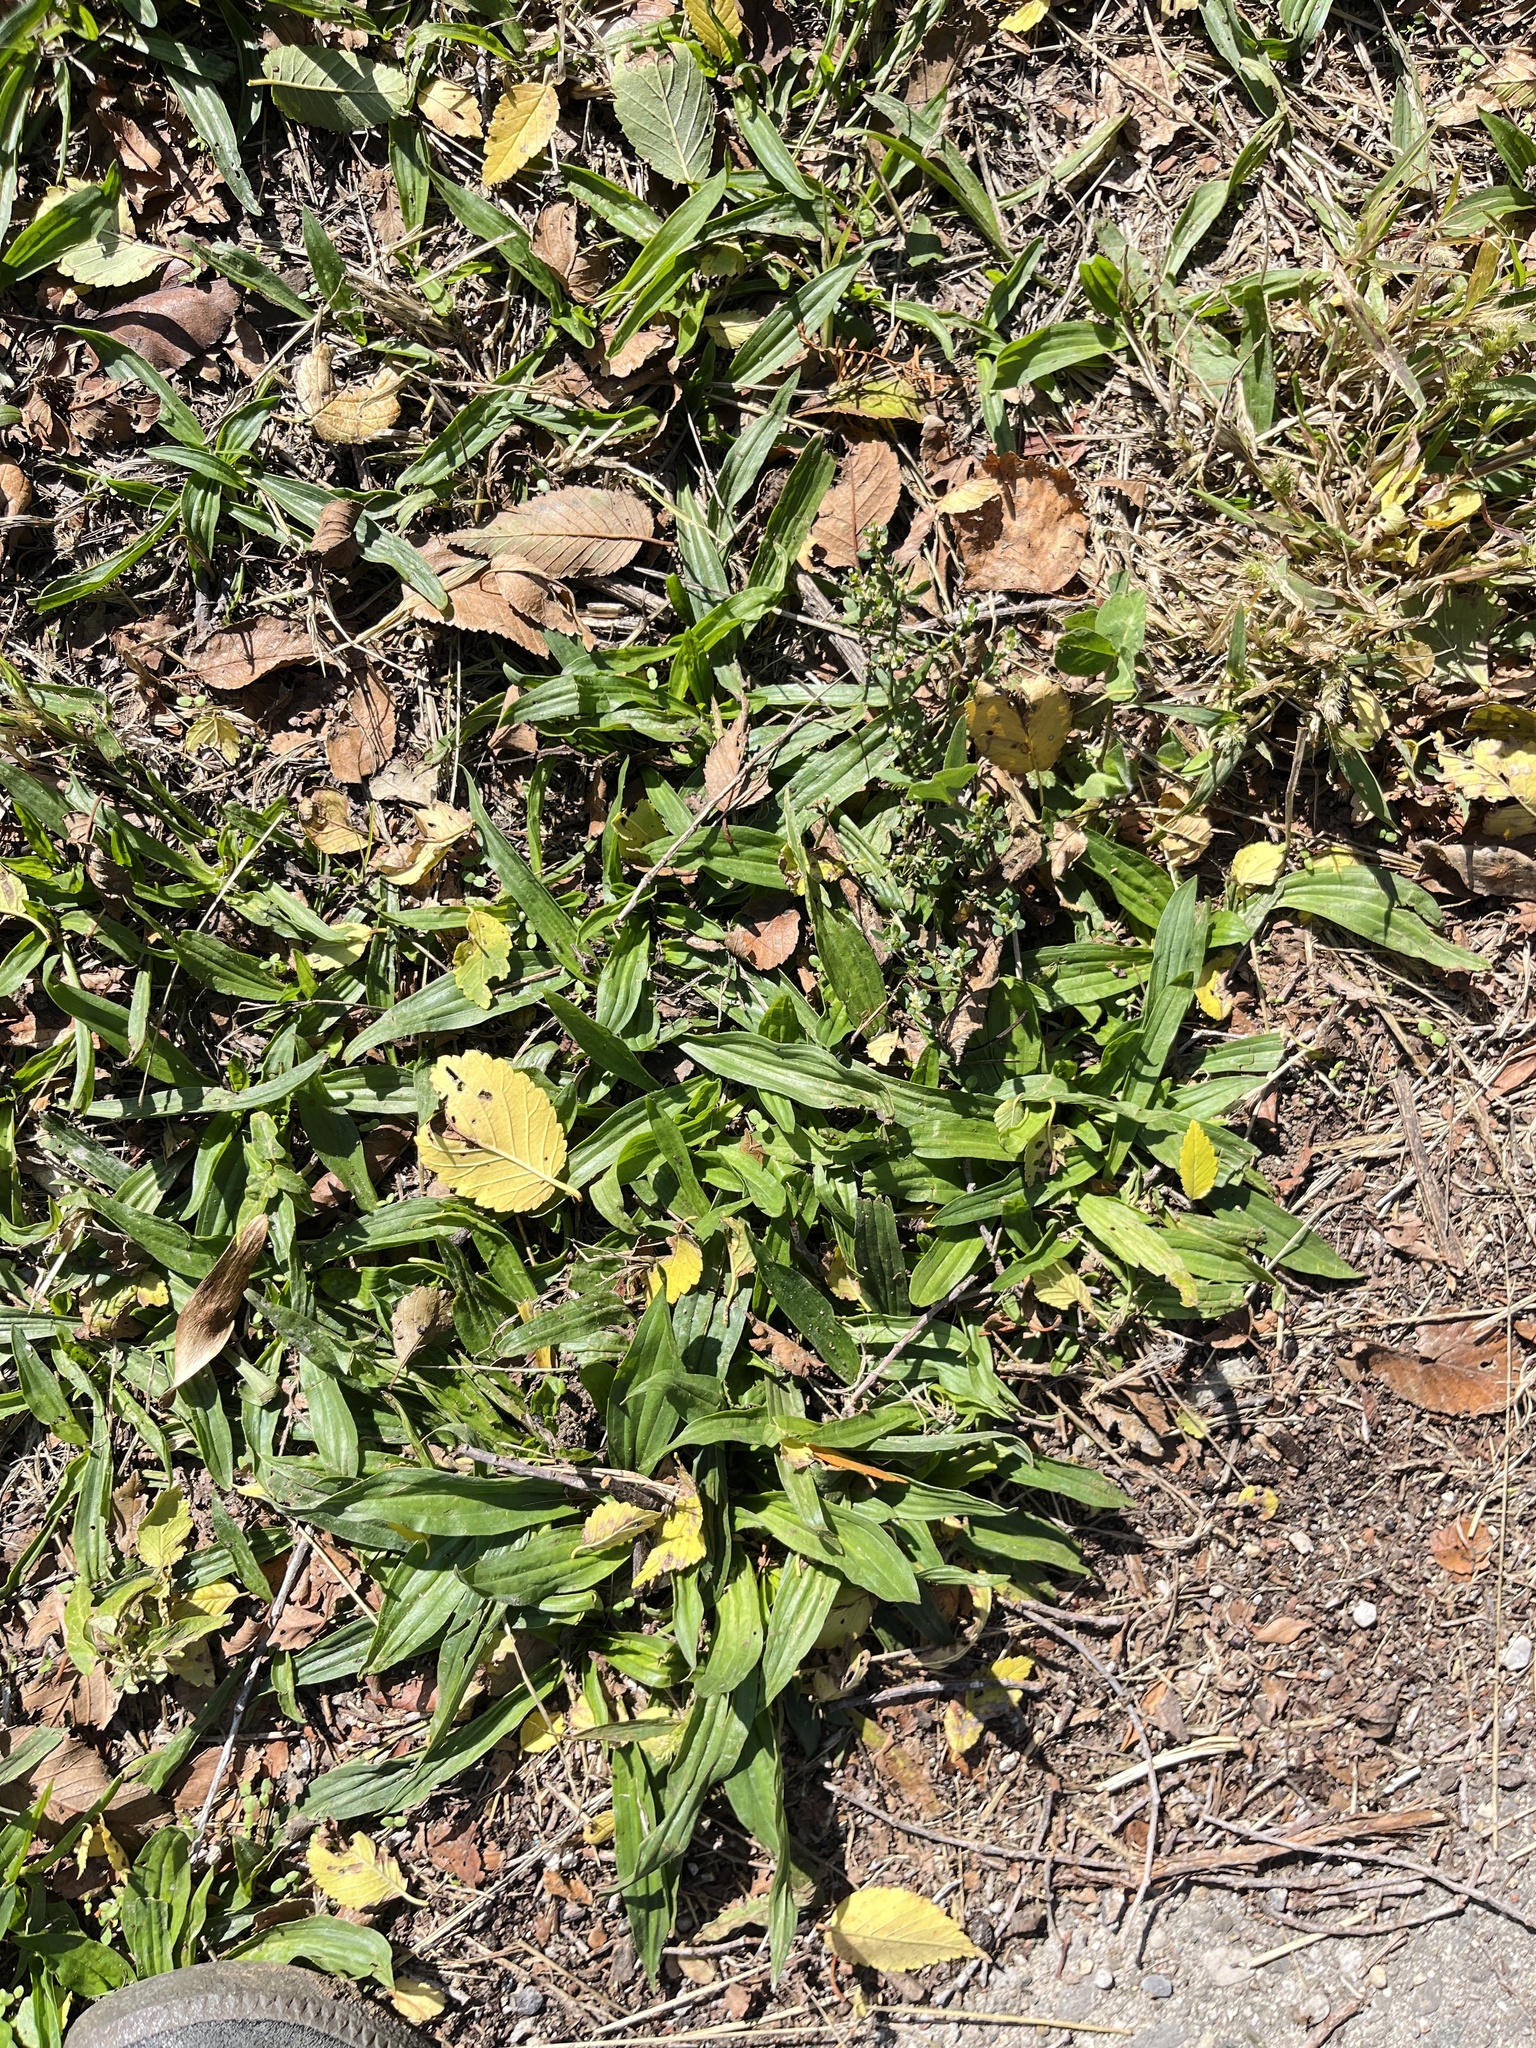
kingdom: Plantae
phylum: Tracheophyta
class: Magnoliopsida
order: Lamiales
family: Plantaginaceae
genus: Plantago
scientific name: Plantago lanceolata
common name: Ribwort plantain
